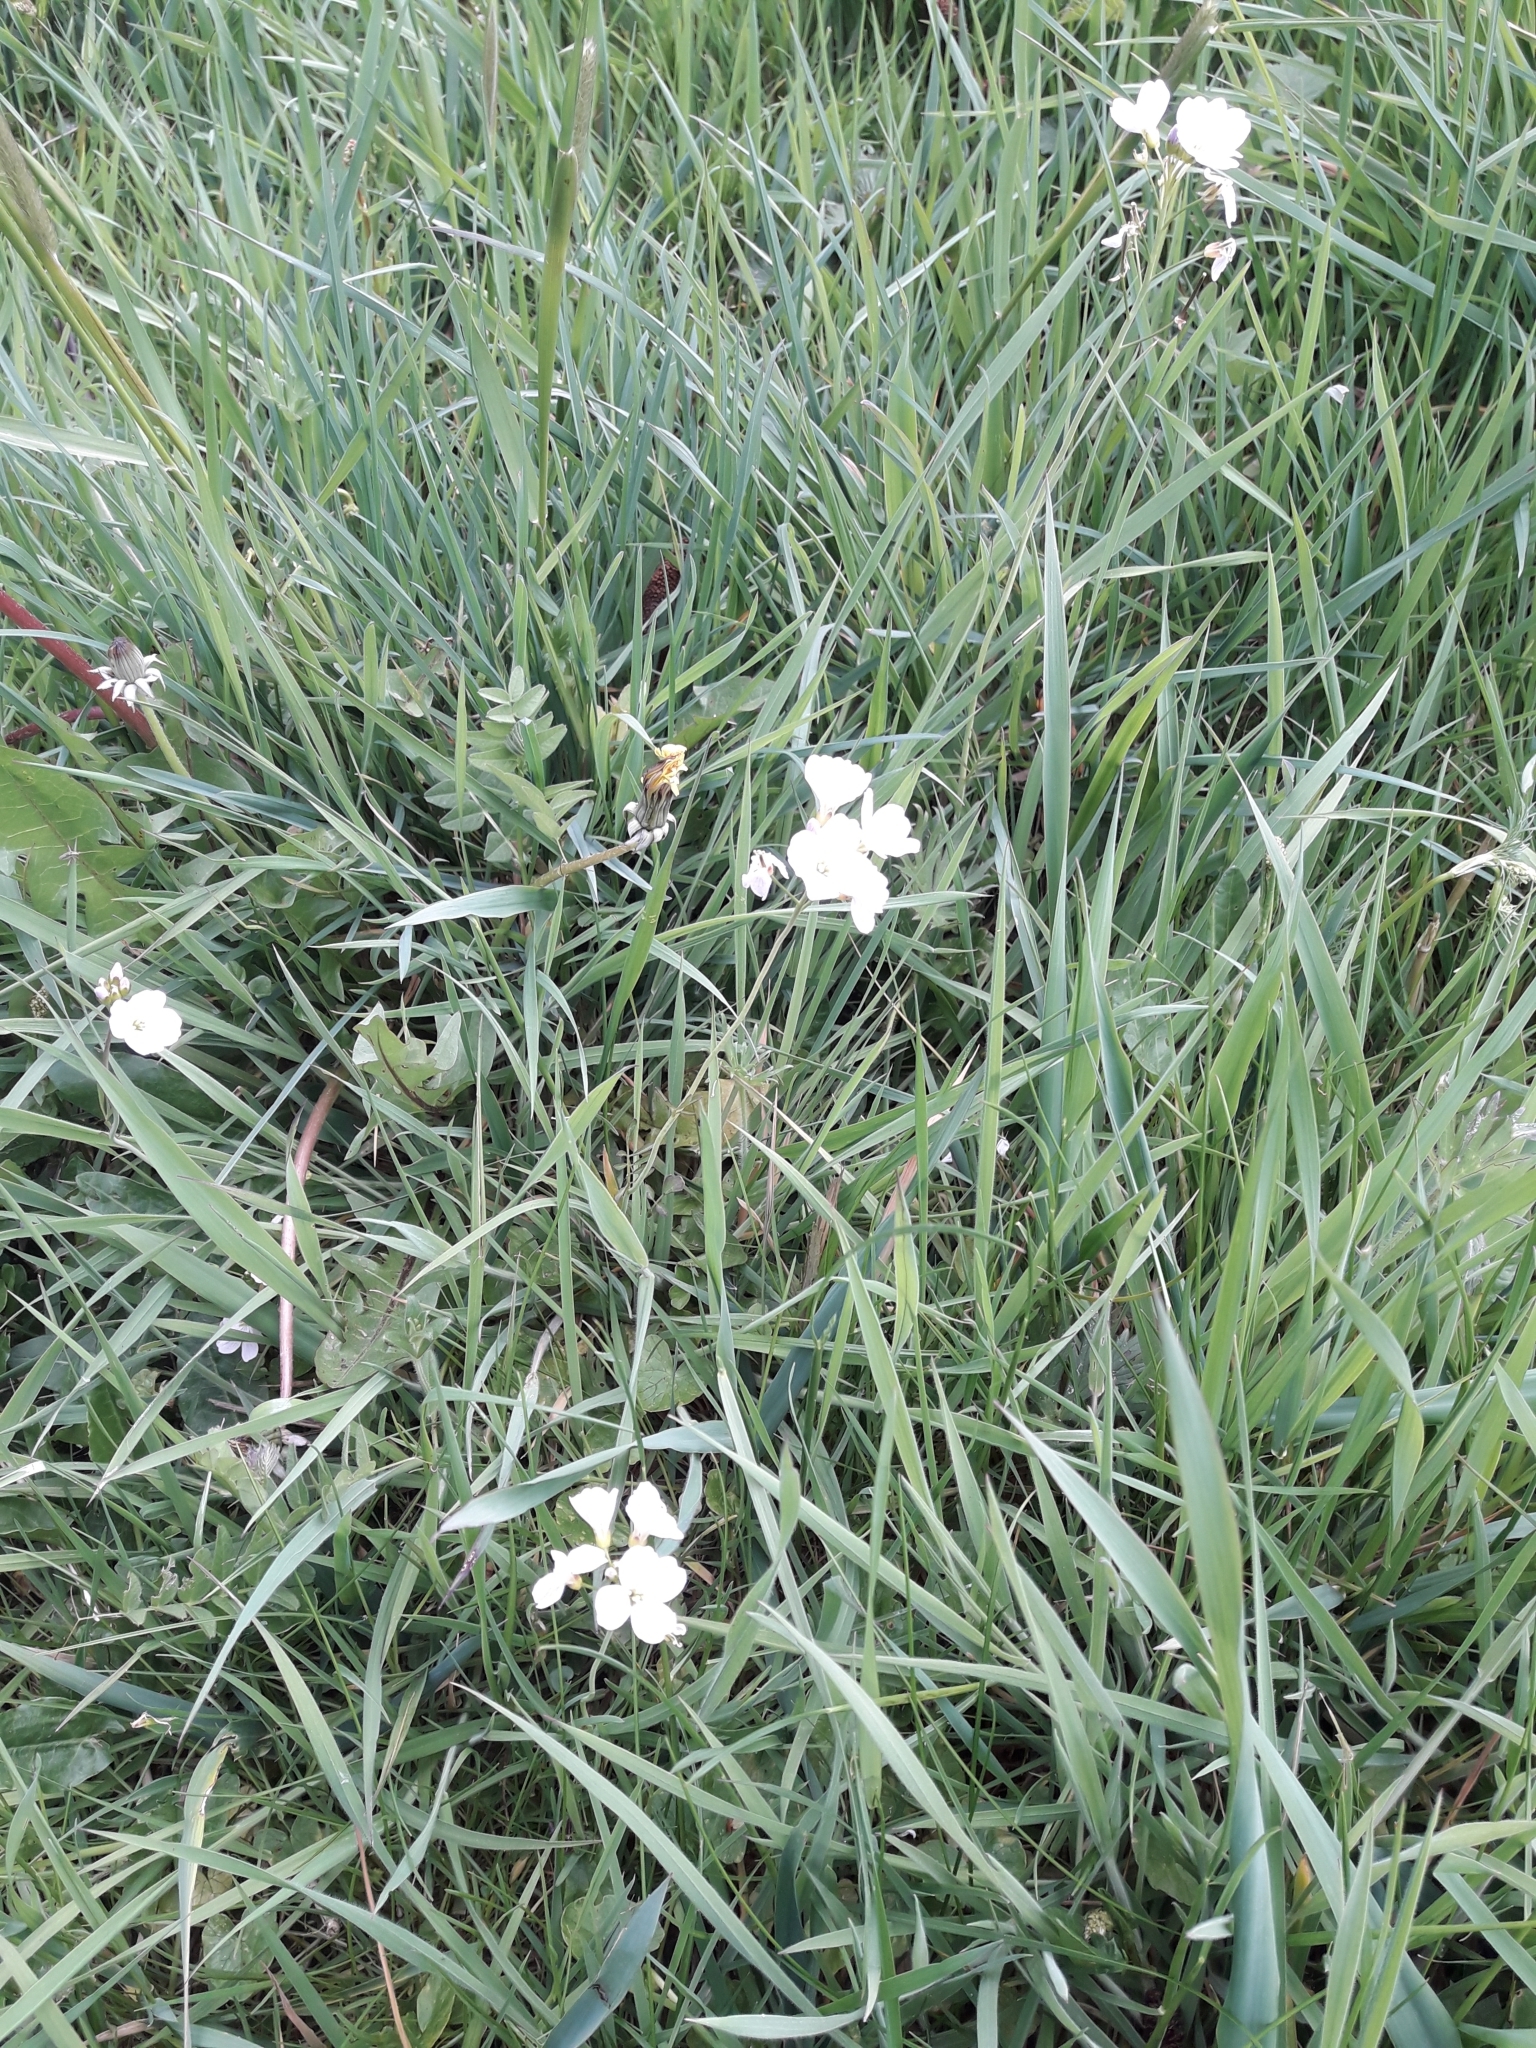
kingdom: Plantae
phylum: Tracheophyta
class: Magnoliopsida
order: Brassicales
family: Brassicaceae
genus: Cardamine
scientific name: Cardamine pratensis
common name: Cuckoo flower
